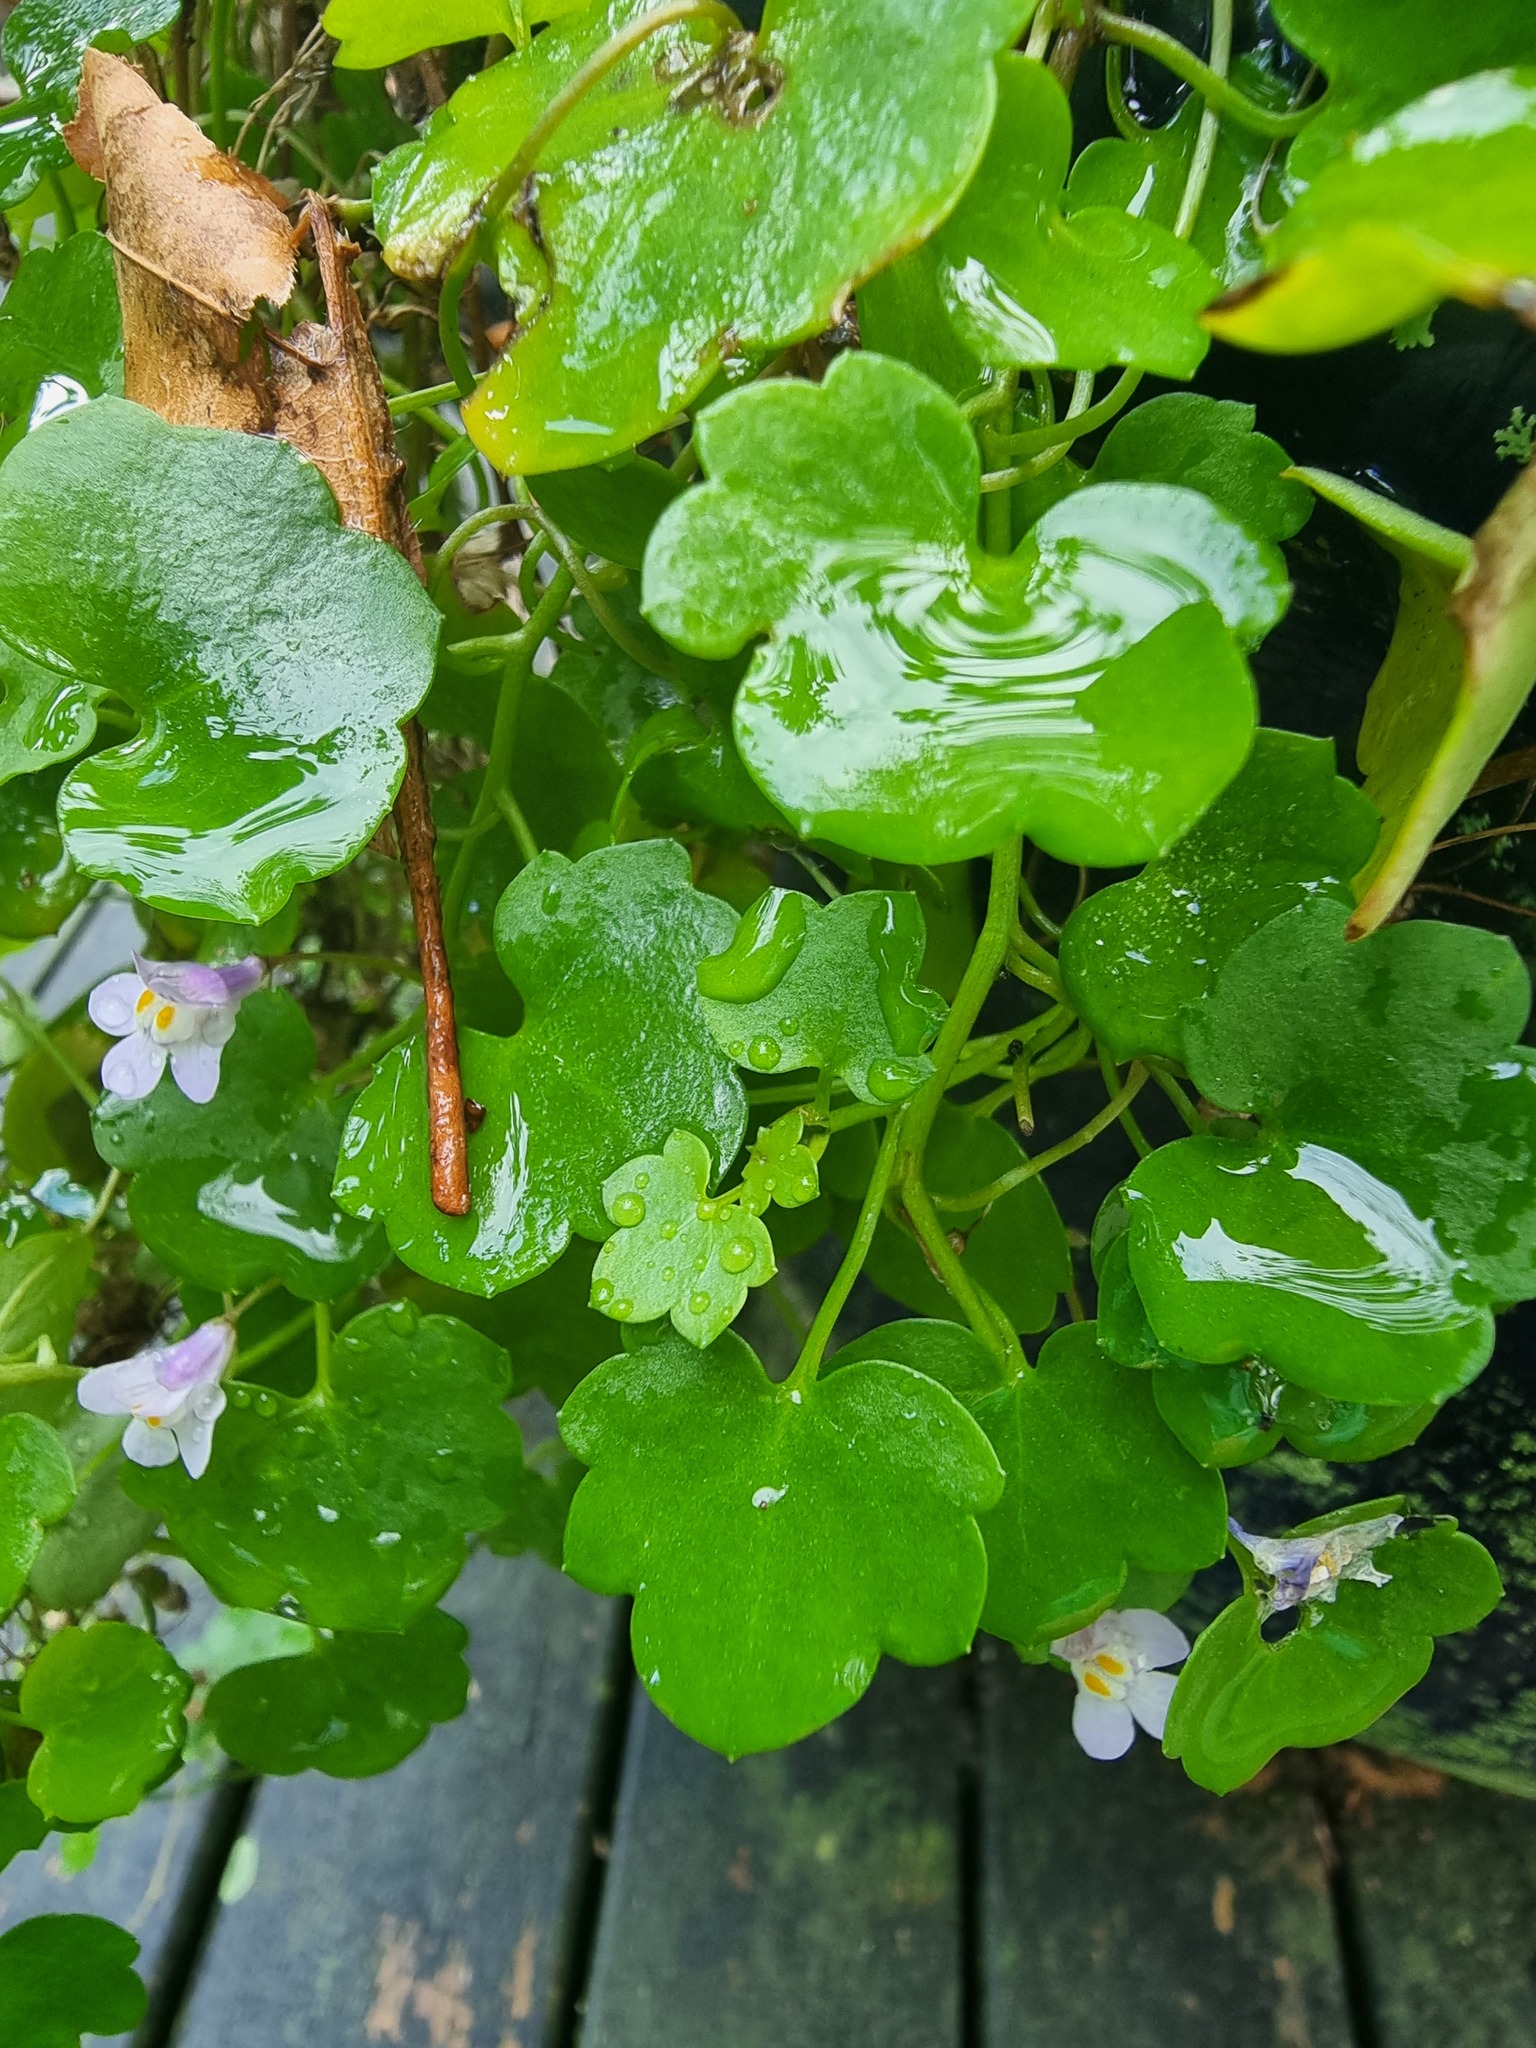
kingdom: Plantae
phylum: Tracheophyta
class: Magnoliopsida
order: Lamiales
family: Plantaginaceae
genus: Cymbalaria
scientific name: Cymbalaria muralis
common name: Ivy-leaved toadflax
